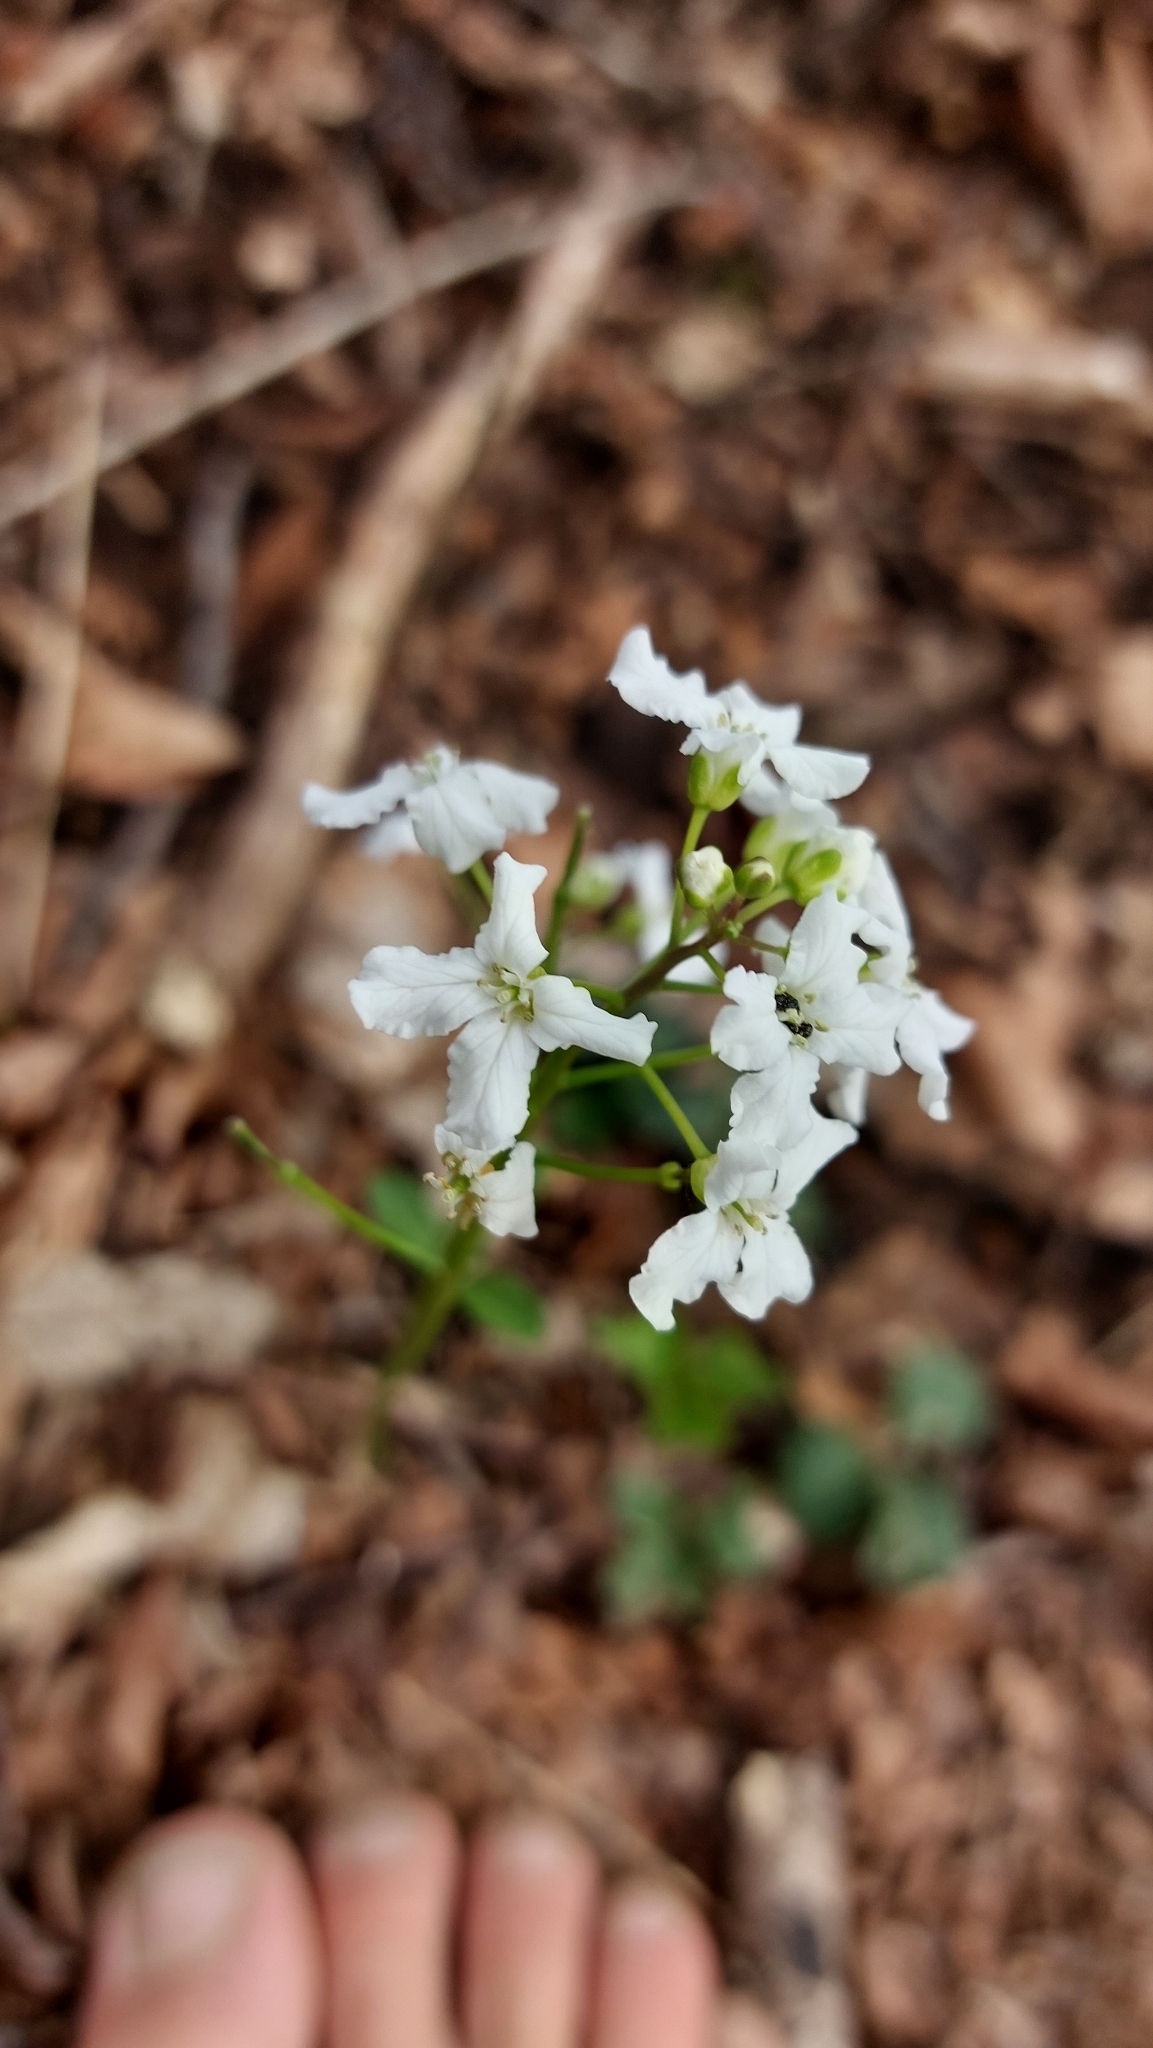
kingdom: Plantae
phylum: Tracheophyta
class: Magnoliopsida
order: Brassicales
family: Brassicaceae
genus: Cardamine
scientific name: Cardamine trifolia
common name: Trefoil cress
